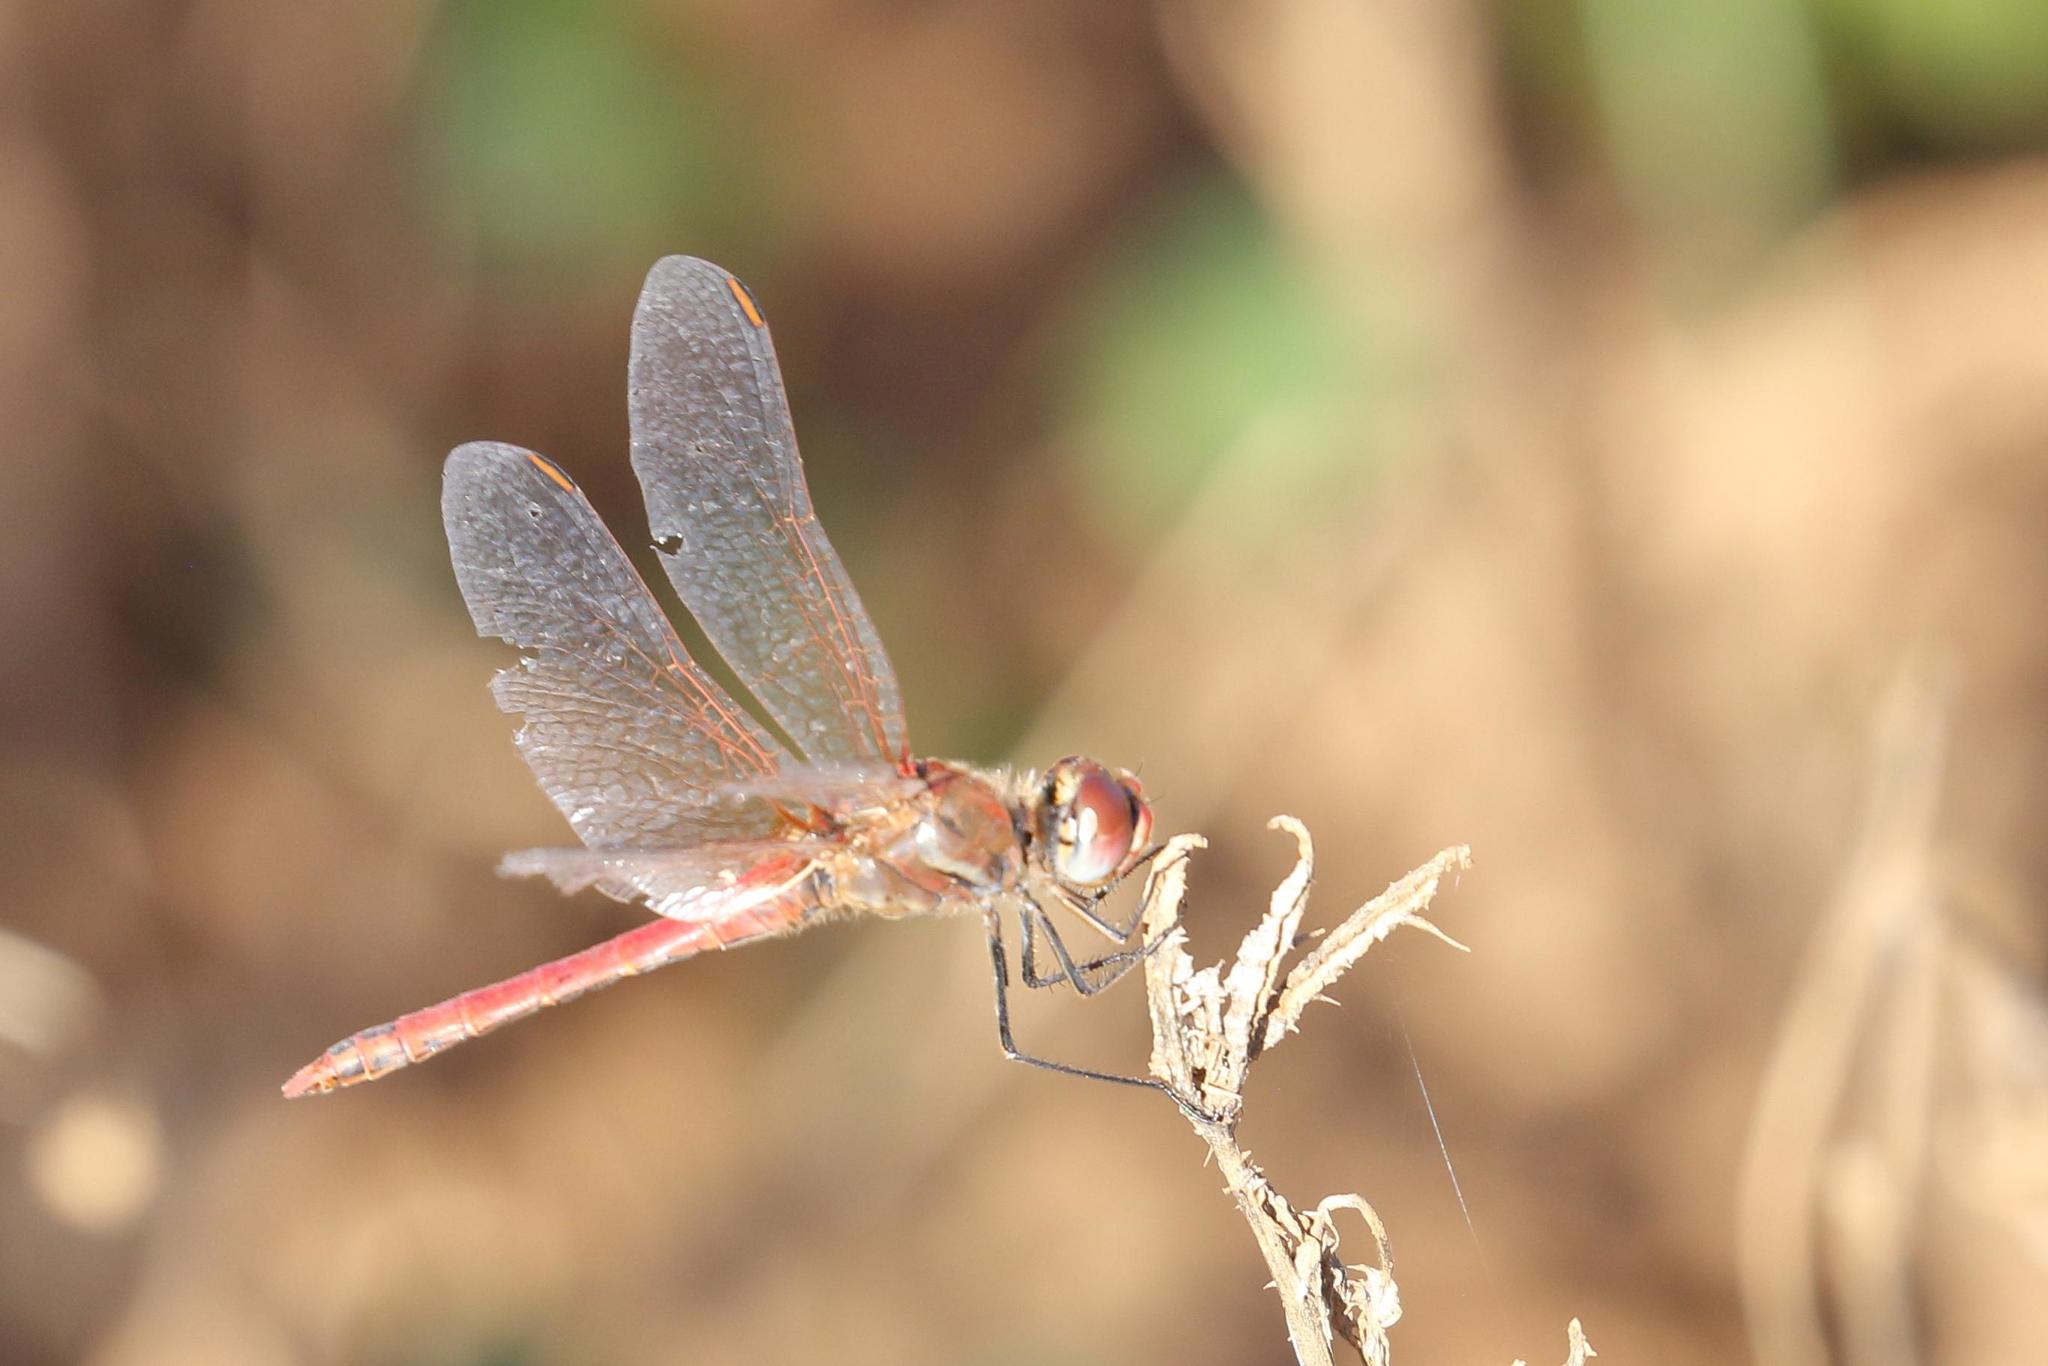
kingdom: Animalia
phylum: Arthropoda
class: Insecta
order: Odonata
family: Libellulidae
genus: Sympetrum
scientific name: Sympetrum fonscolombii
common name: Red-veined darter
